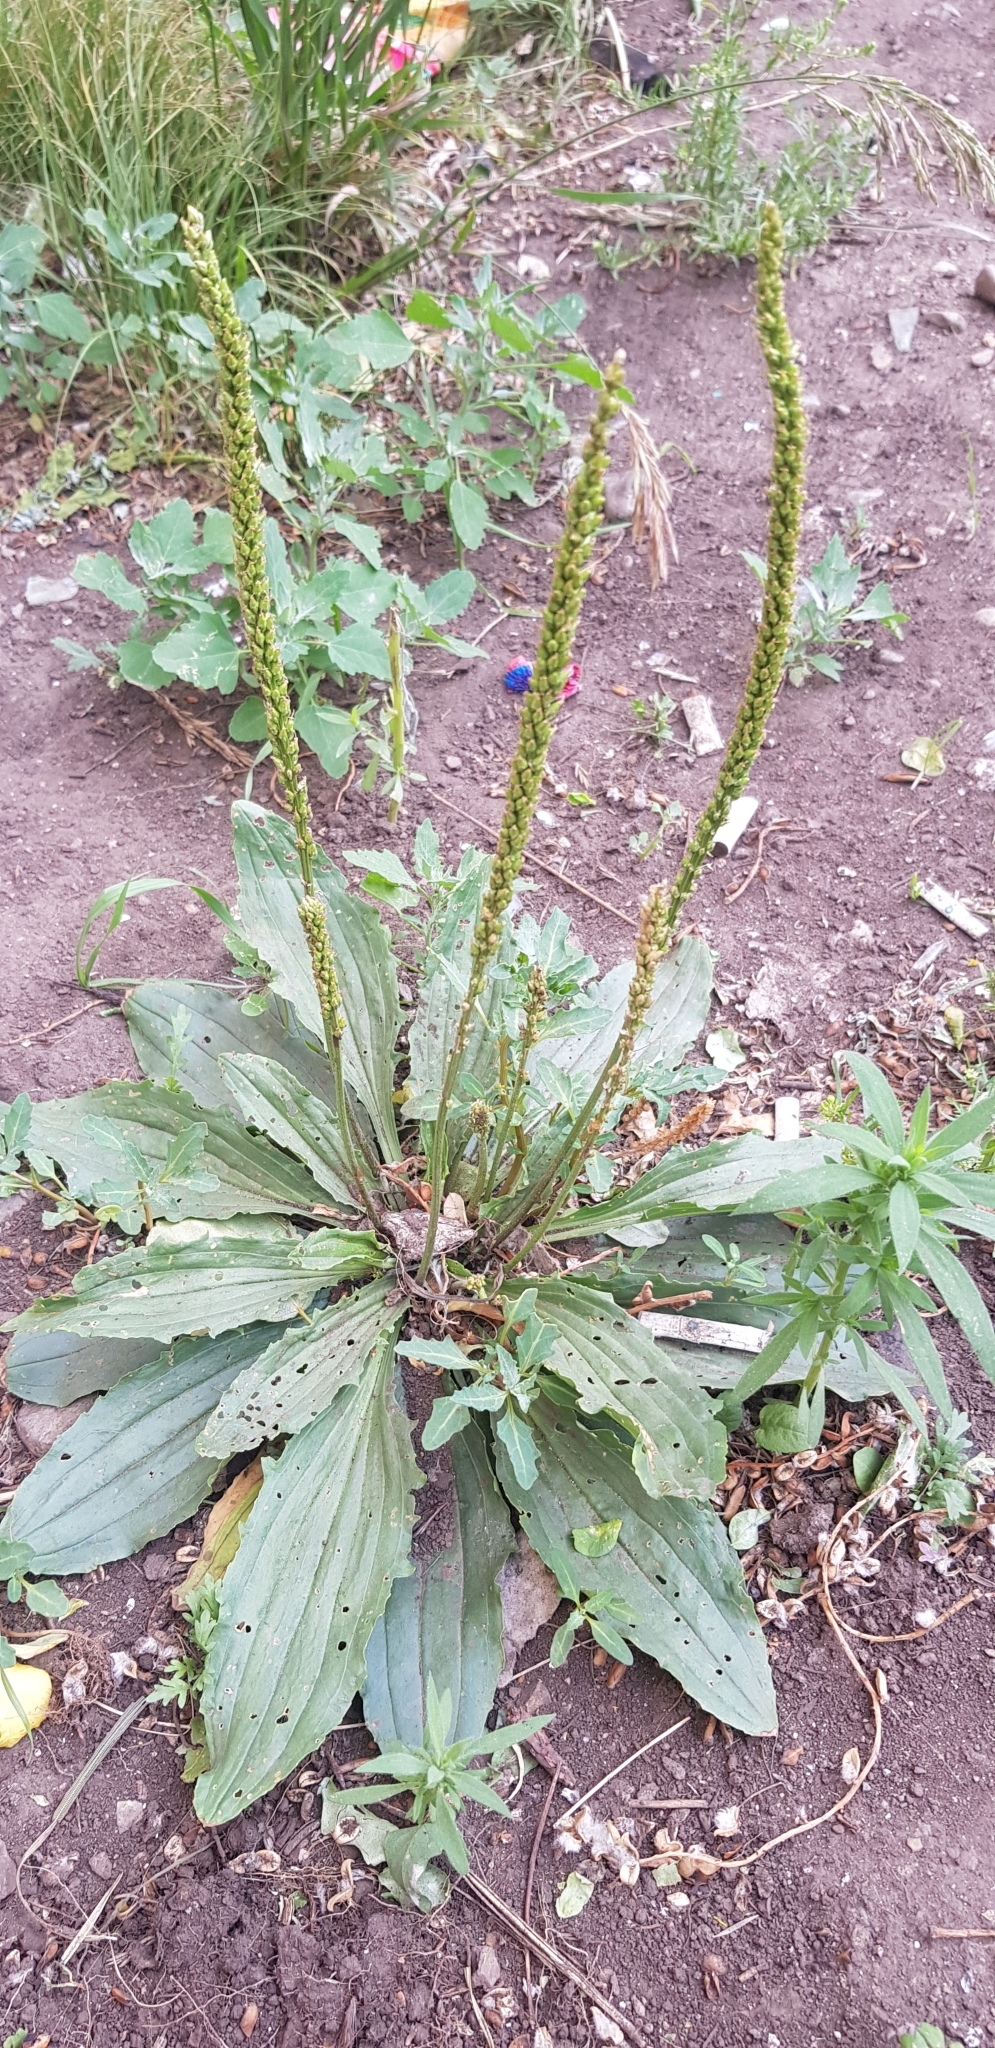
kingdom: Plantae
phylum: Tracheophyta
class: Magnoliopsida
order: Lamiales
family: Plantaginaceae
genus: Plantago
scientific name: Plantago depressa
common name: Depressed plantain
